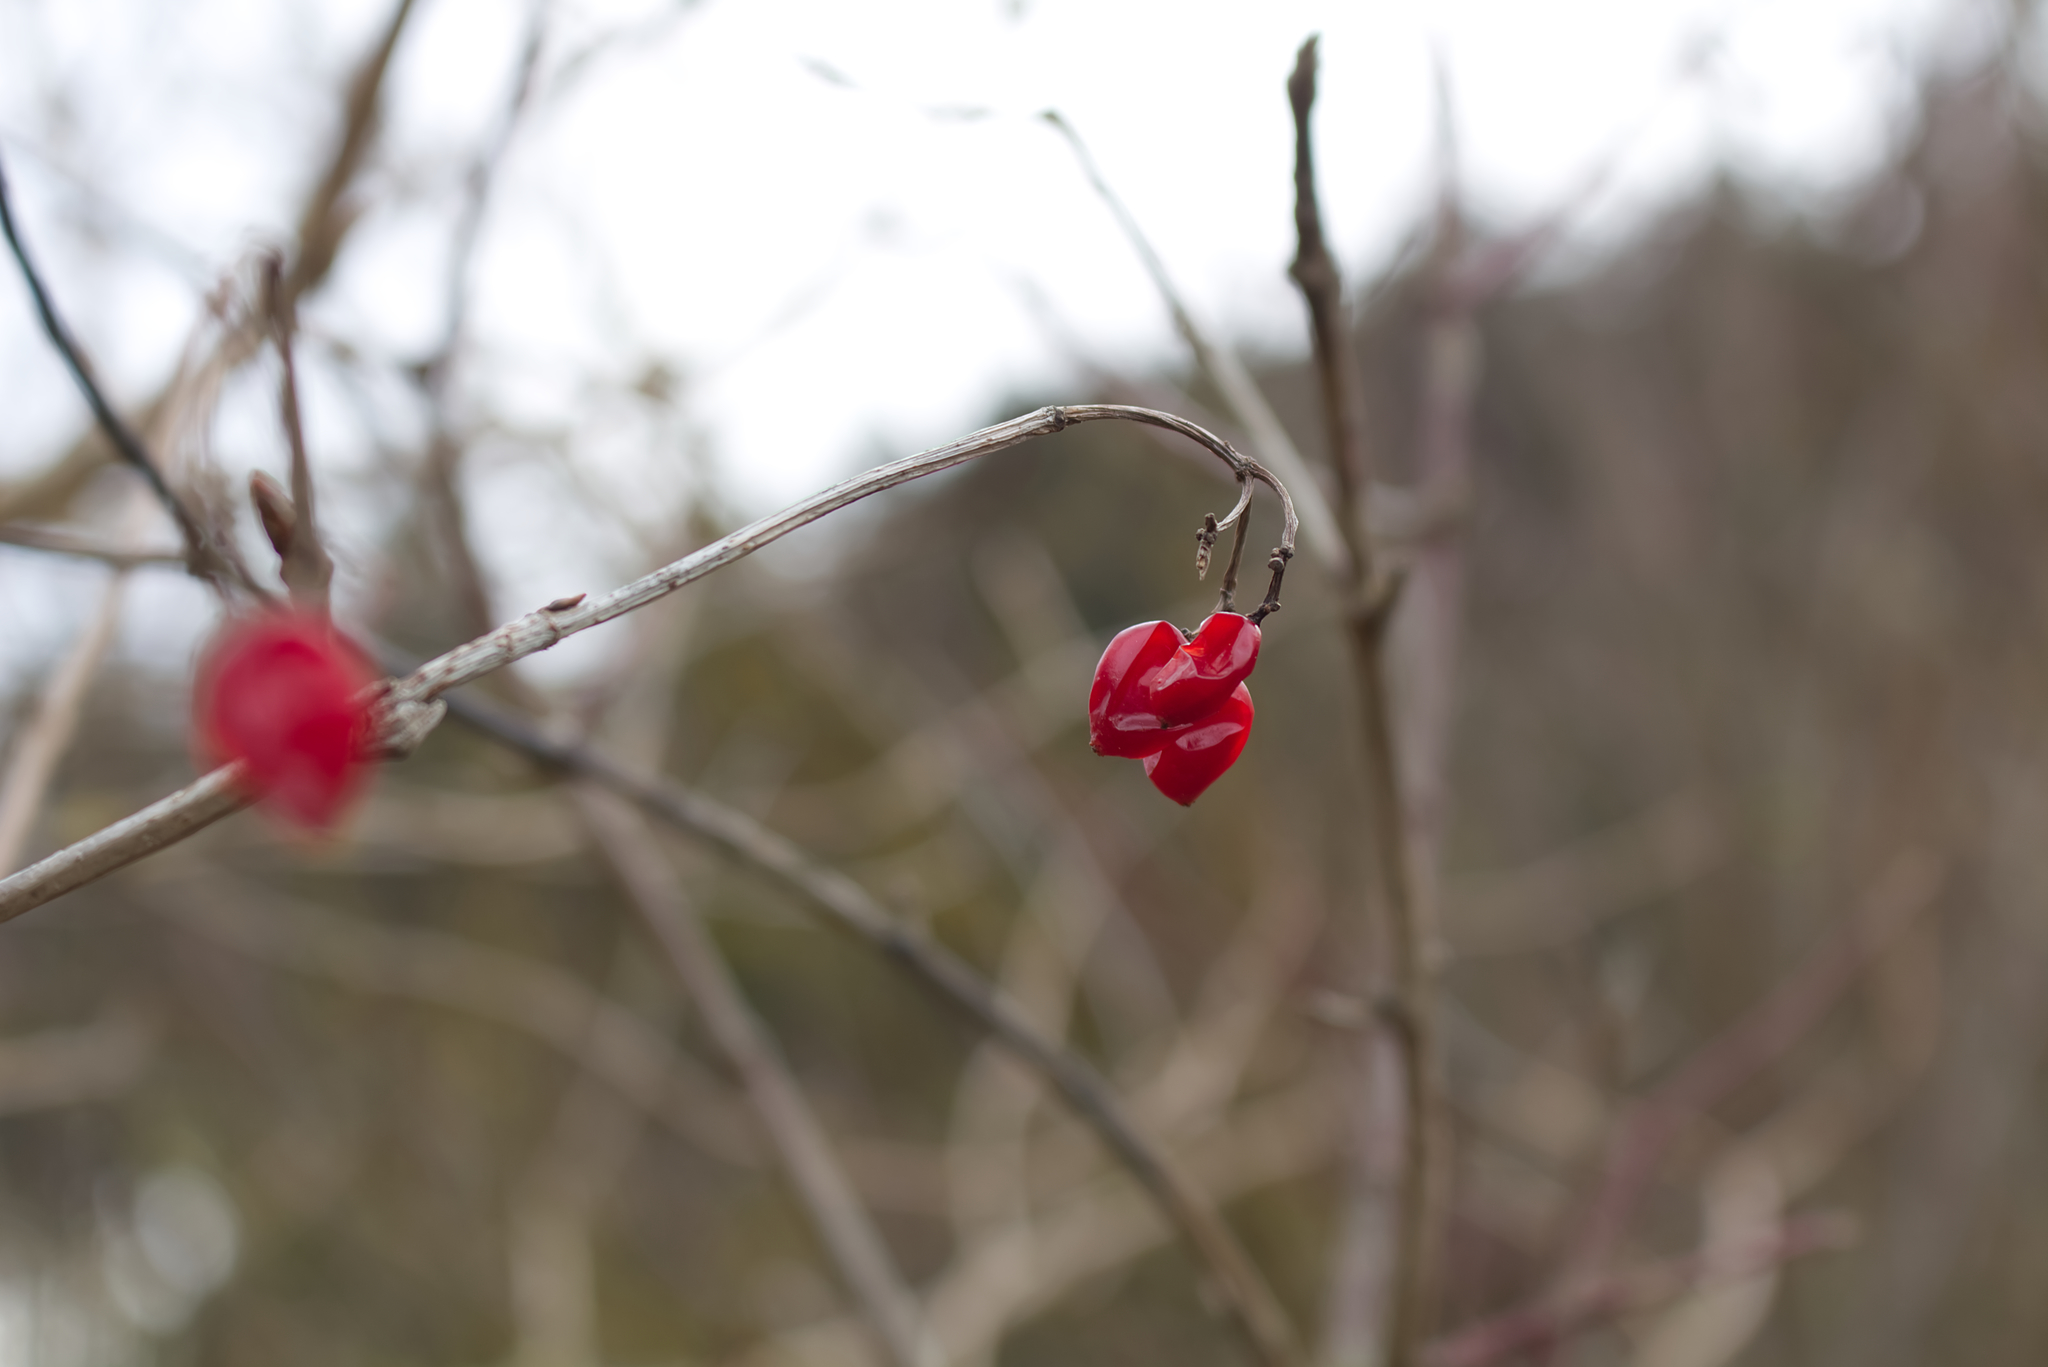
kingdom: Plantae
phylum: Tracheophyta
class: Magnoliopsida
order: Dipsacales
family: Viburnaceae
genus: Viburnum
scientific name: Viburnum opulus
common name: Guelder-rose
